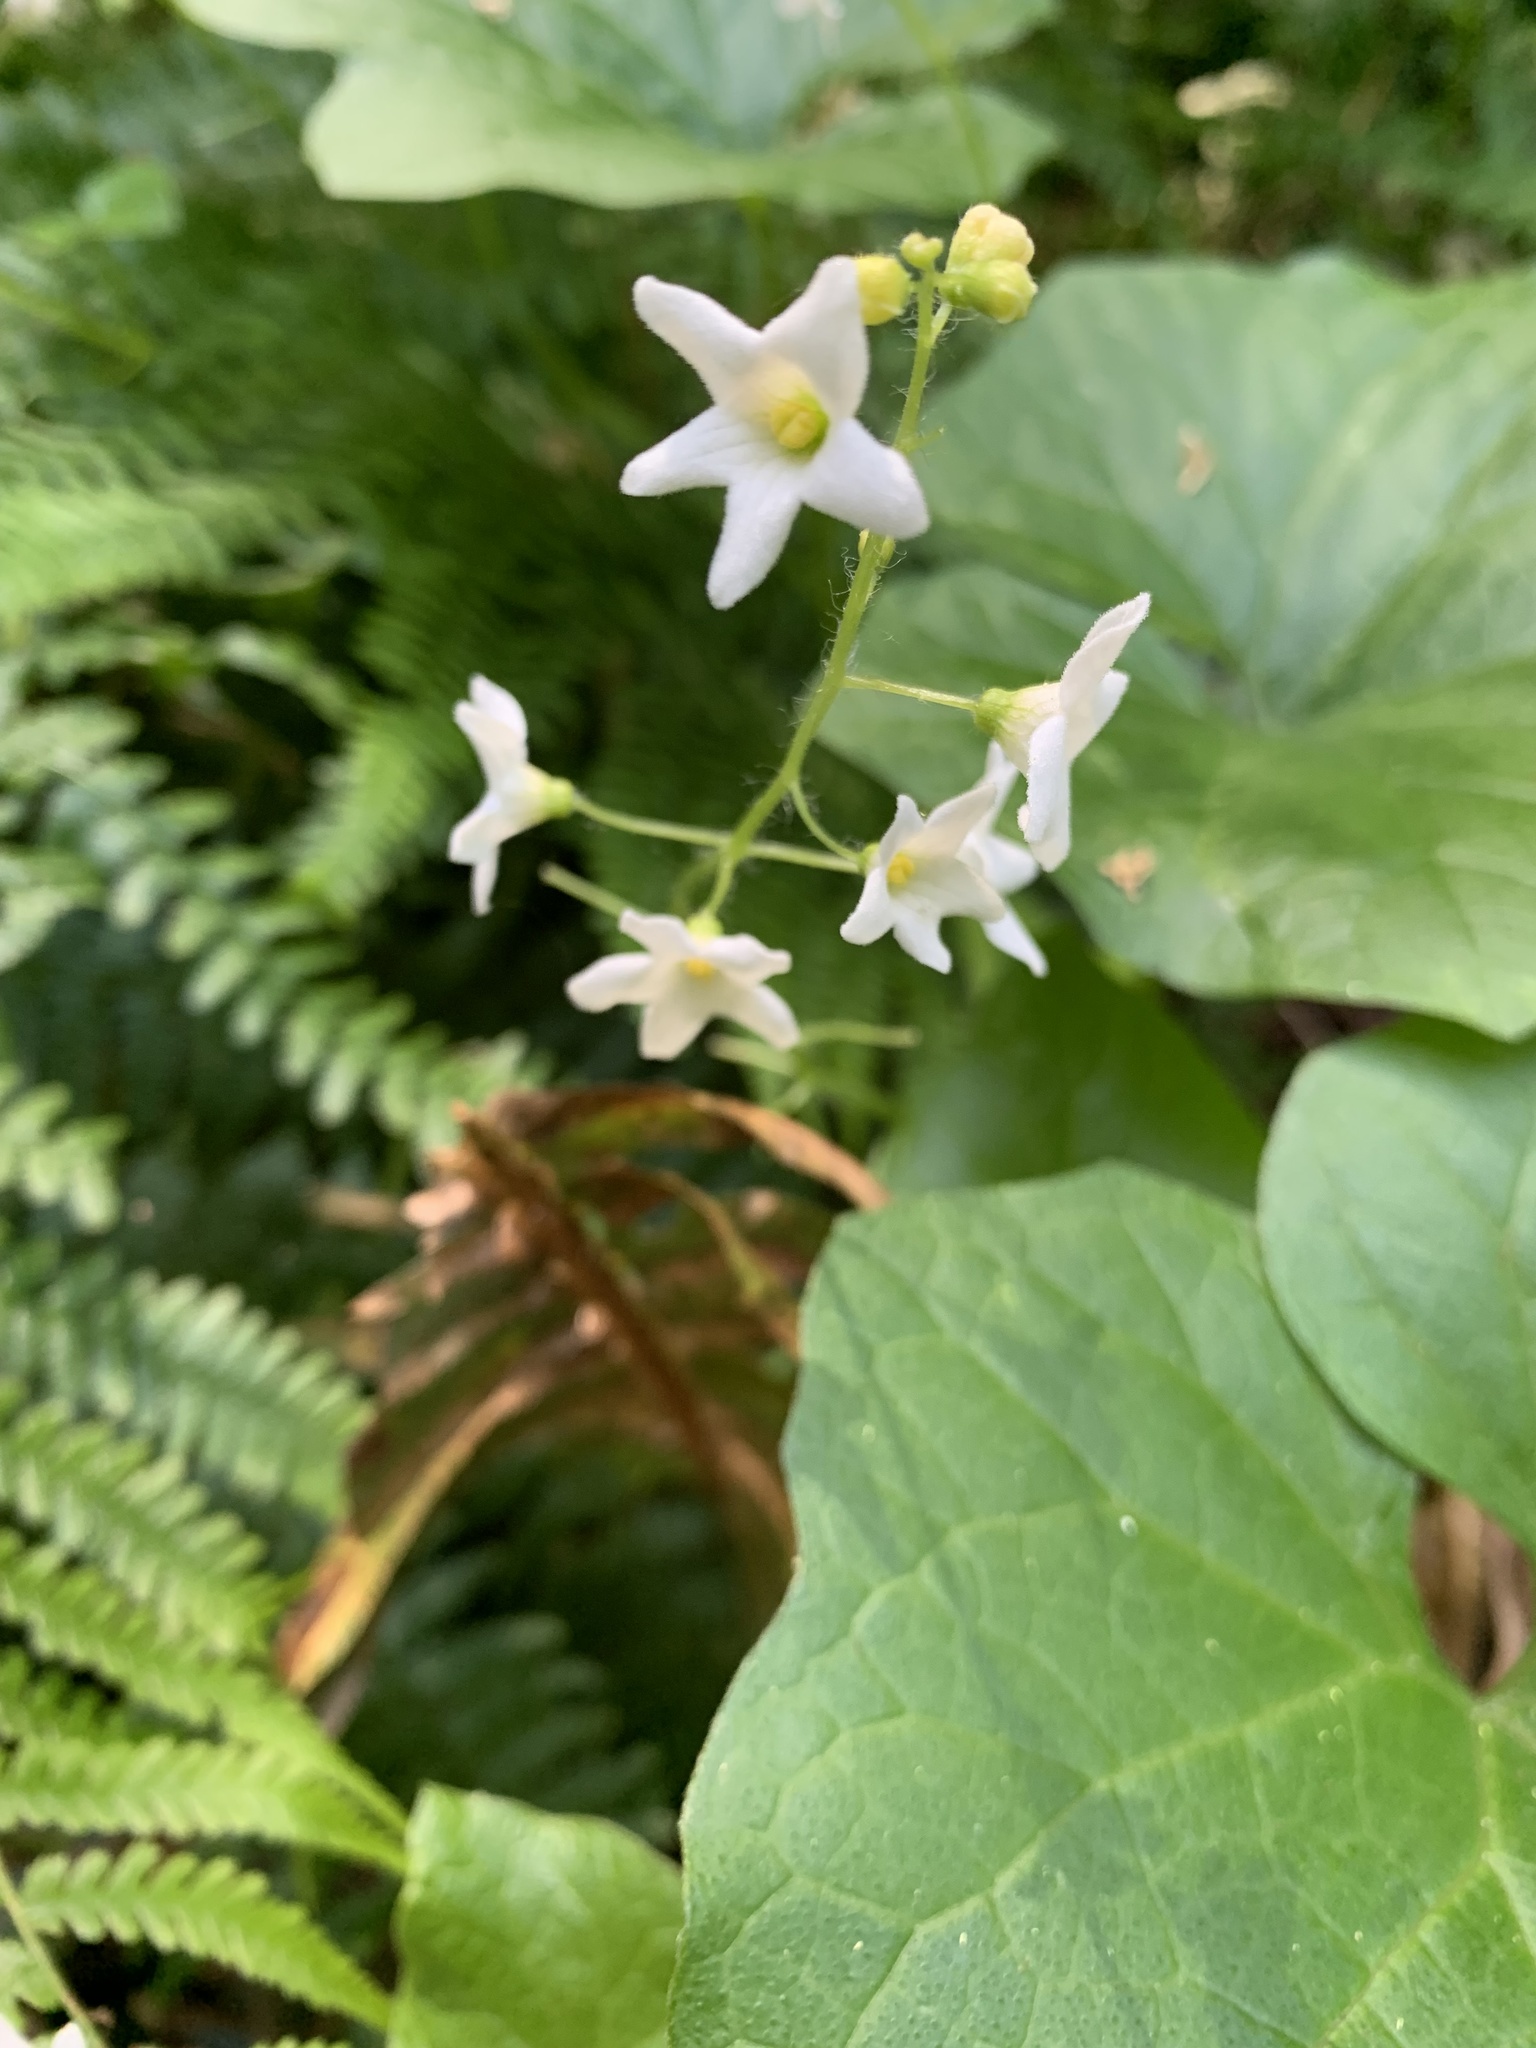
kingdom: Plantae
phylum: Tracheophyta
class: Magnoliopsida
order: Cucurbitales
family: Cucurbitaceae
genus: Marah
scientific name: Marah oregana
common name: Coastal manroot
